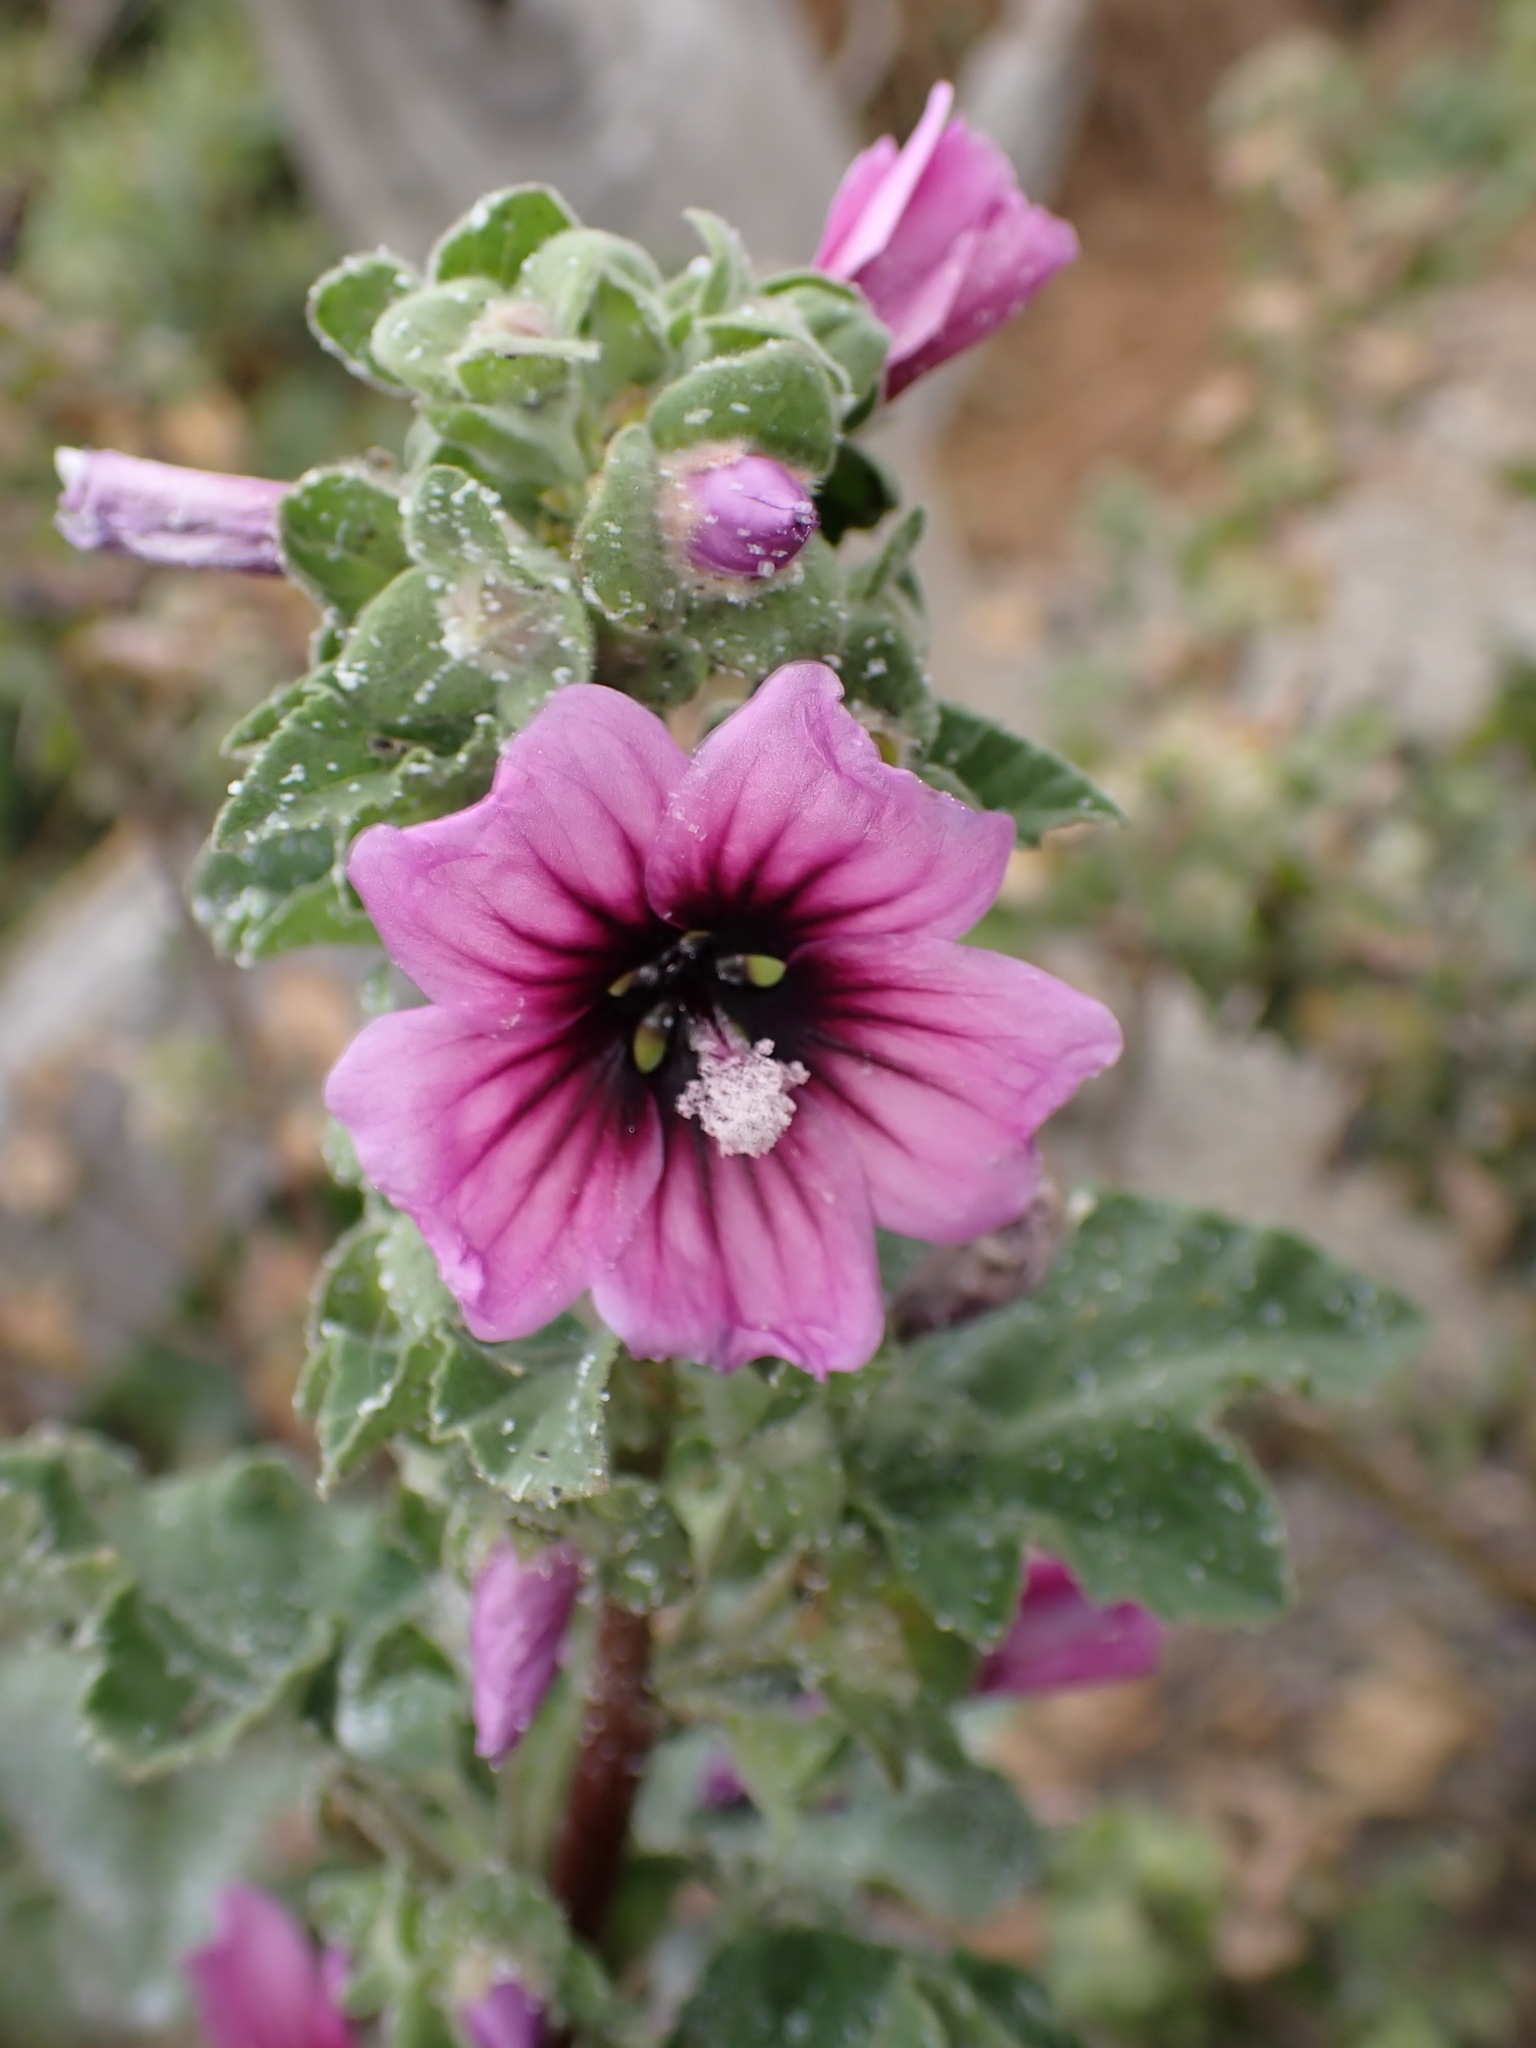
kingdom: Plantae
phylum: Tracheophyta
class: Magnoliopsida
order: Malvales
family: Malvaceae
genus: Malva
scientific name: Malva arborea
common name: Tree mallow
